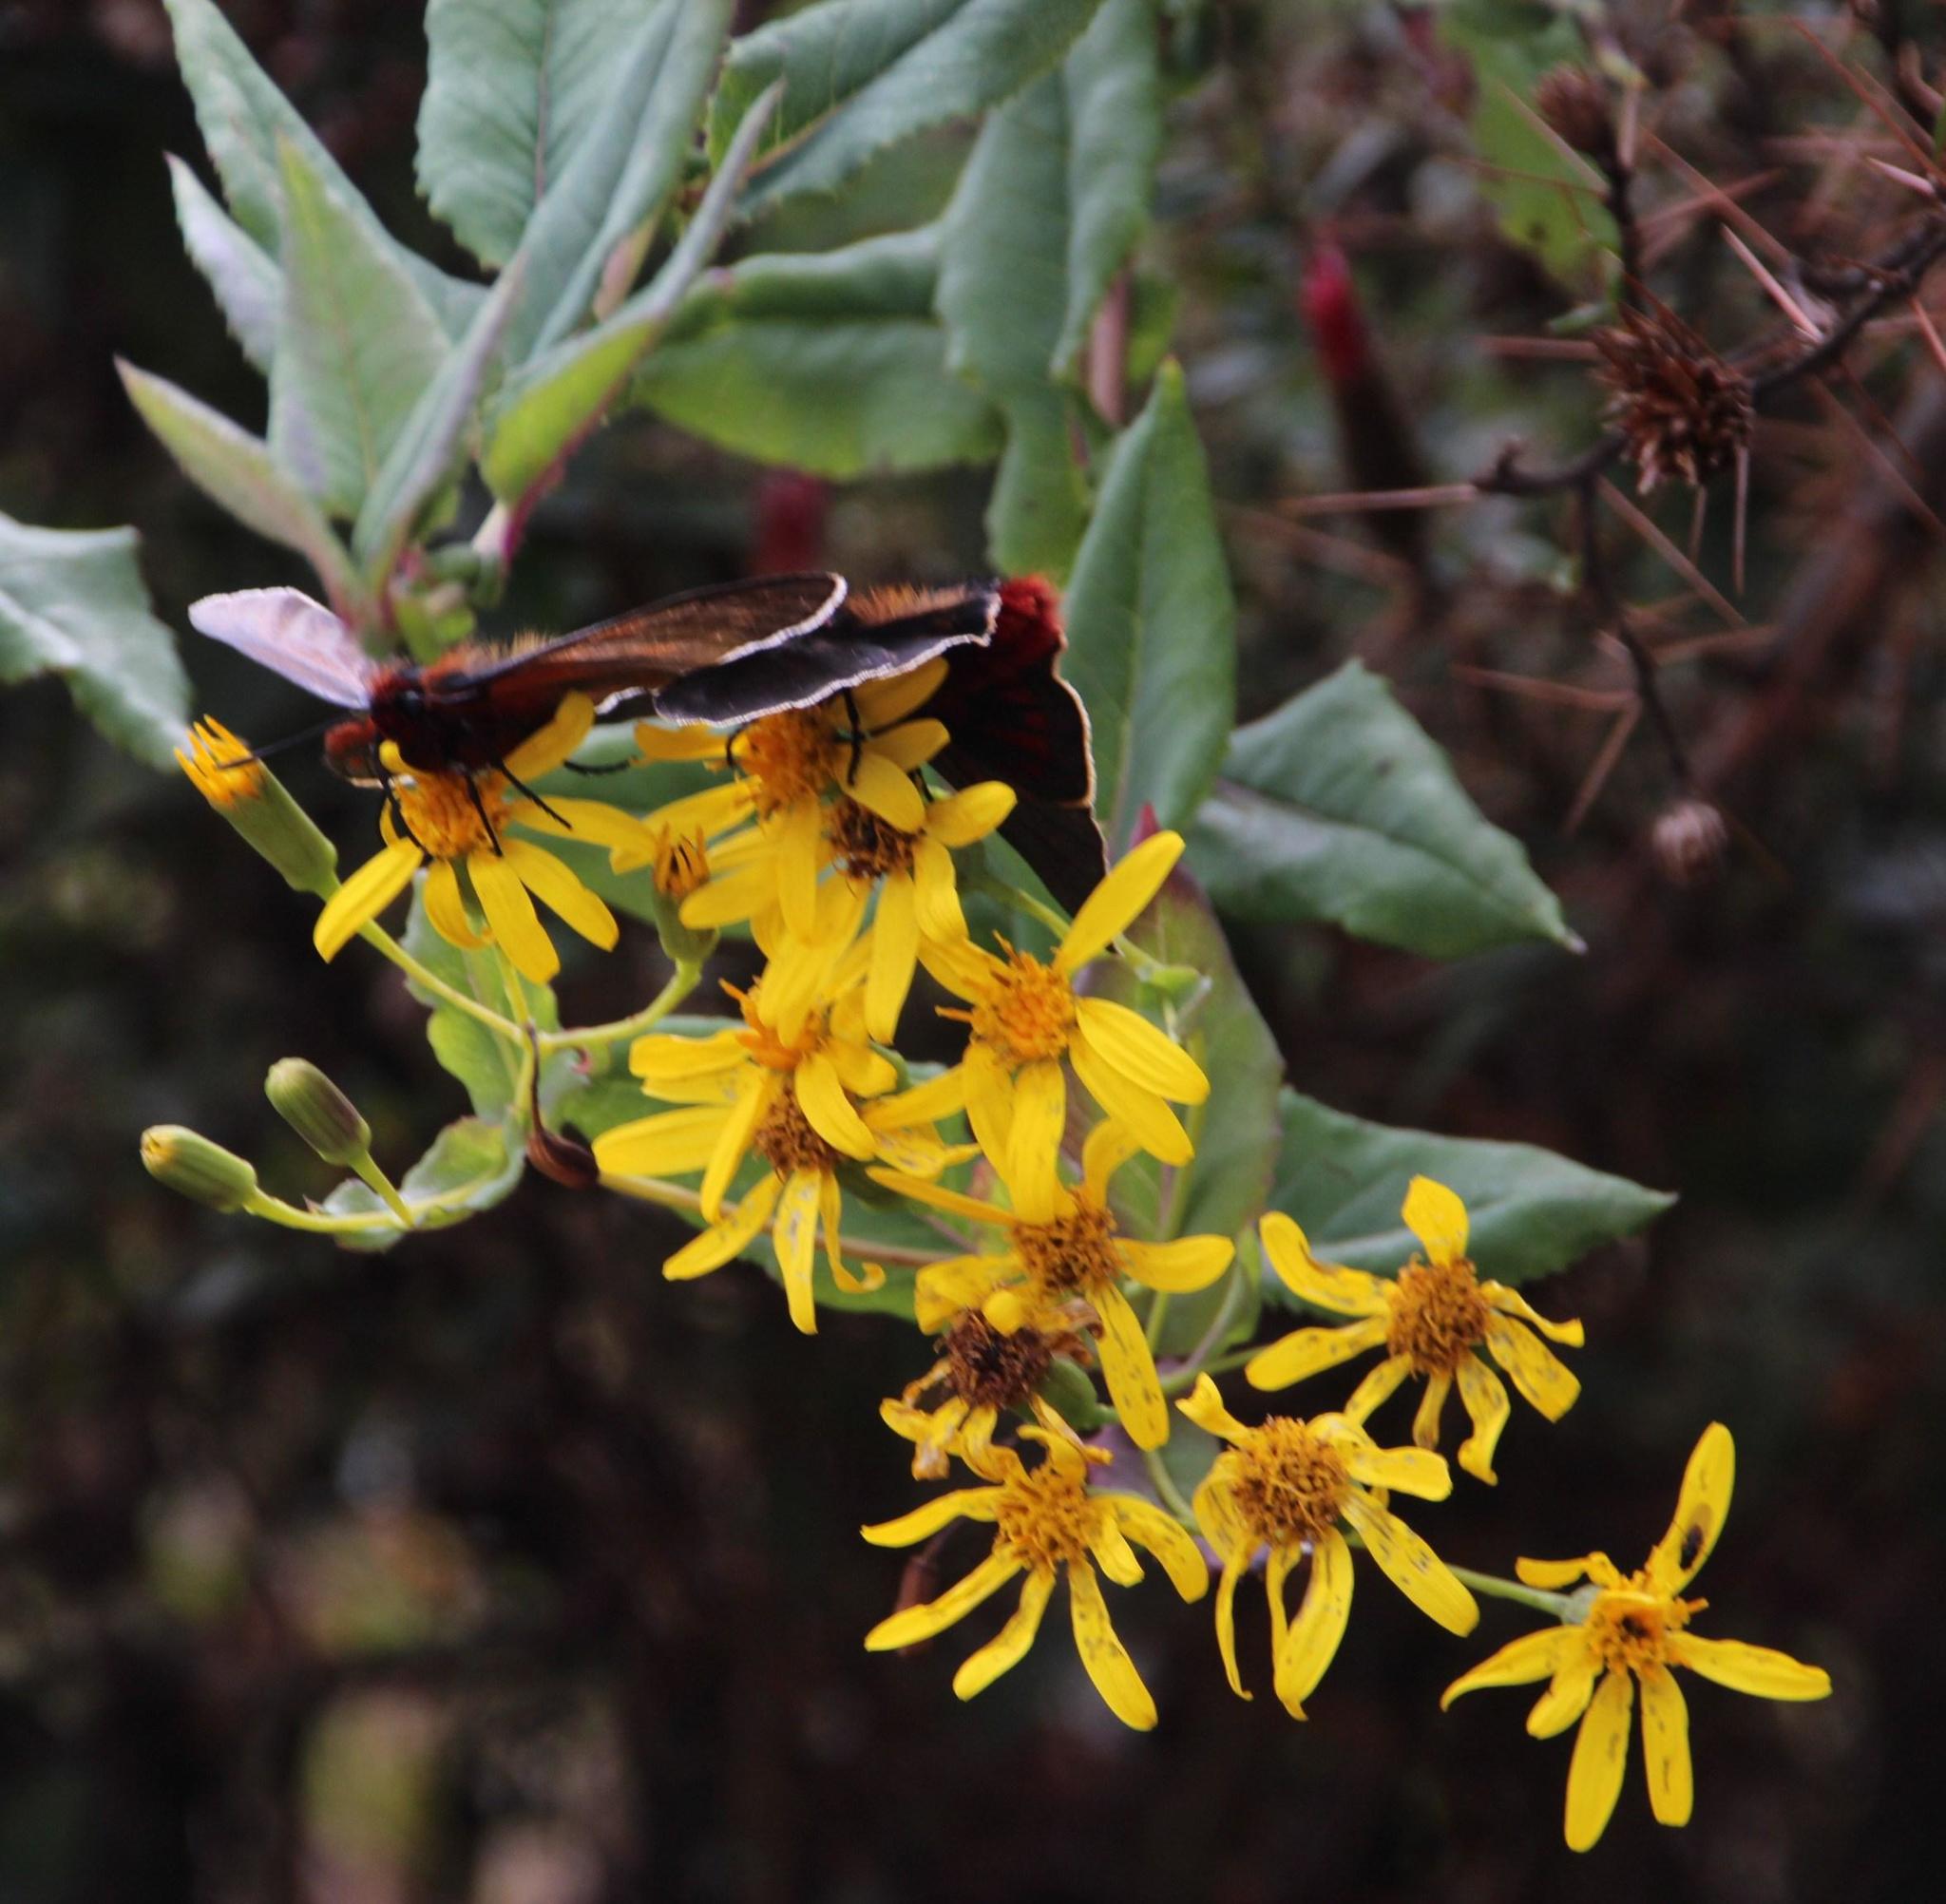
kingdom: Animalia
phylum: Arthropoda
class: Insecta
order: Lepidoptera
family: Hesperiidae
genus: Metardaris
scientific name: Metardaris cosinga
